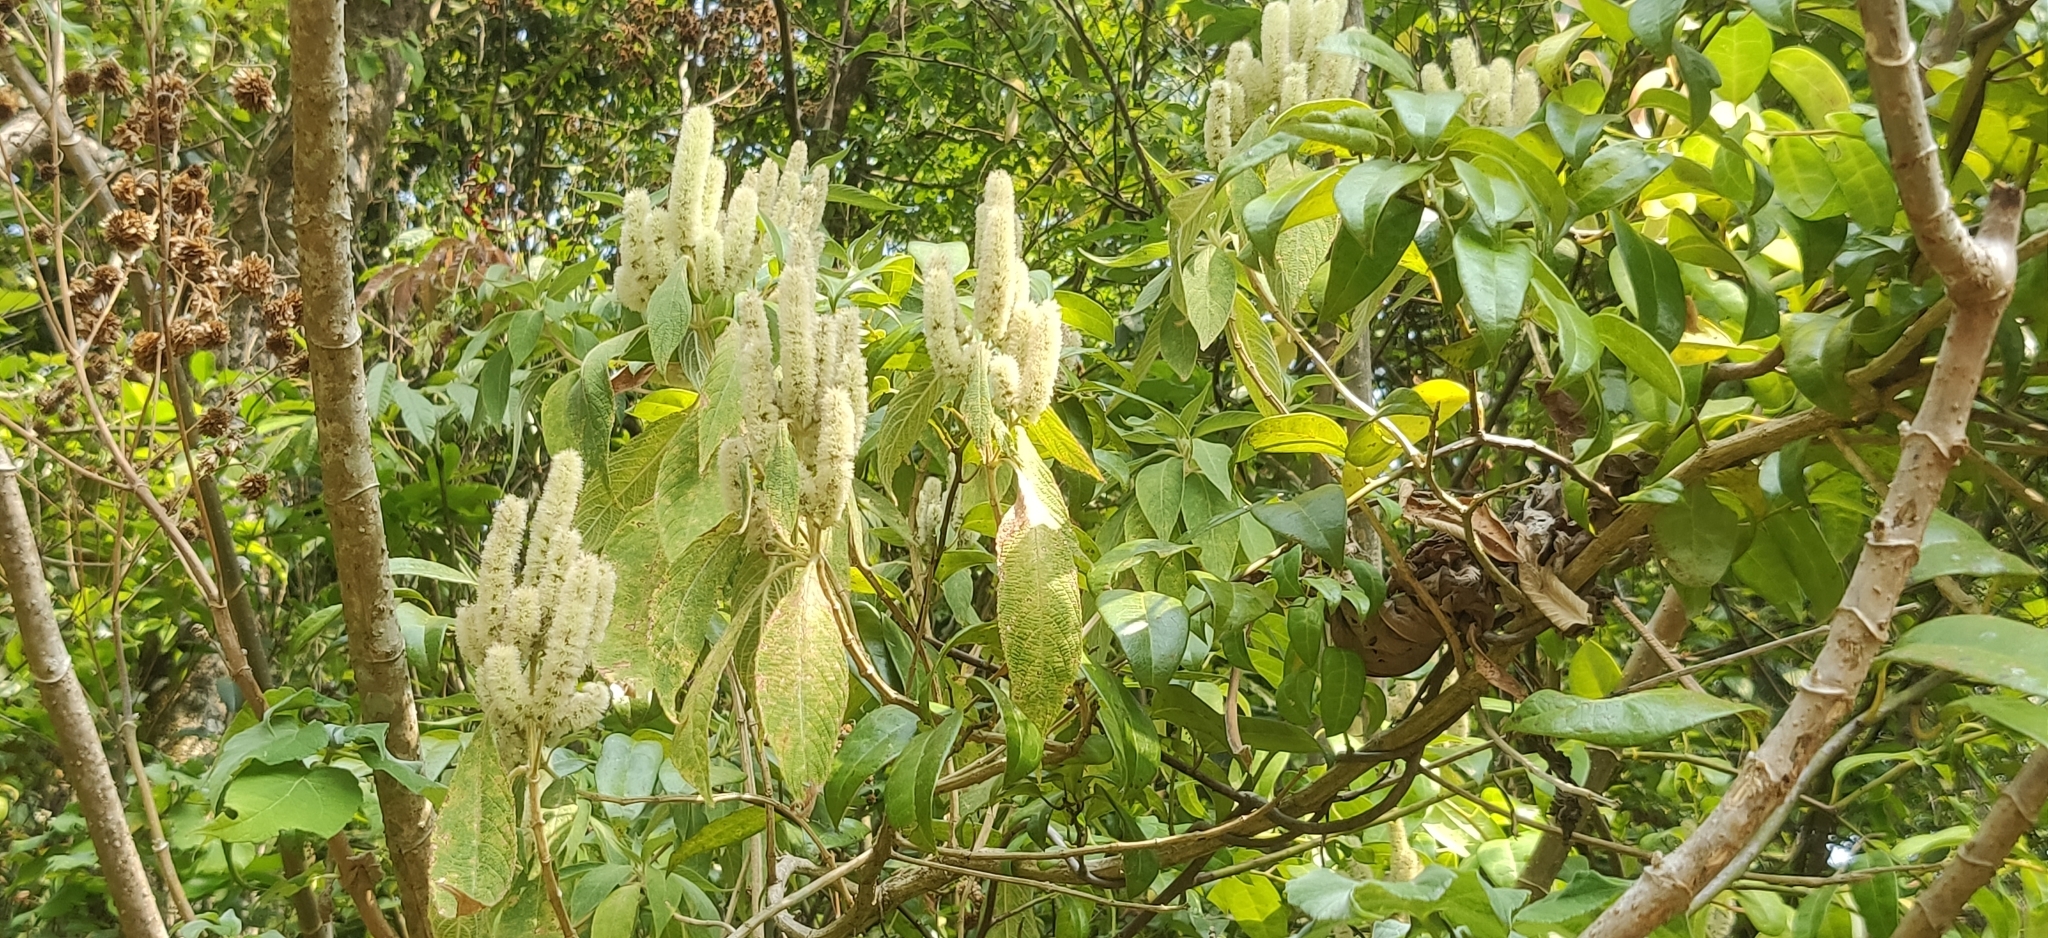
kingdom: Plantae
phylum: Tracheophyta
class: Magnoliopsida
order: Lamiales
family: Lamiaceae
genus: Colebrookea
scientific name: Colebrookea oppositifolia
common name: Indian squirrel tail
